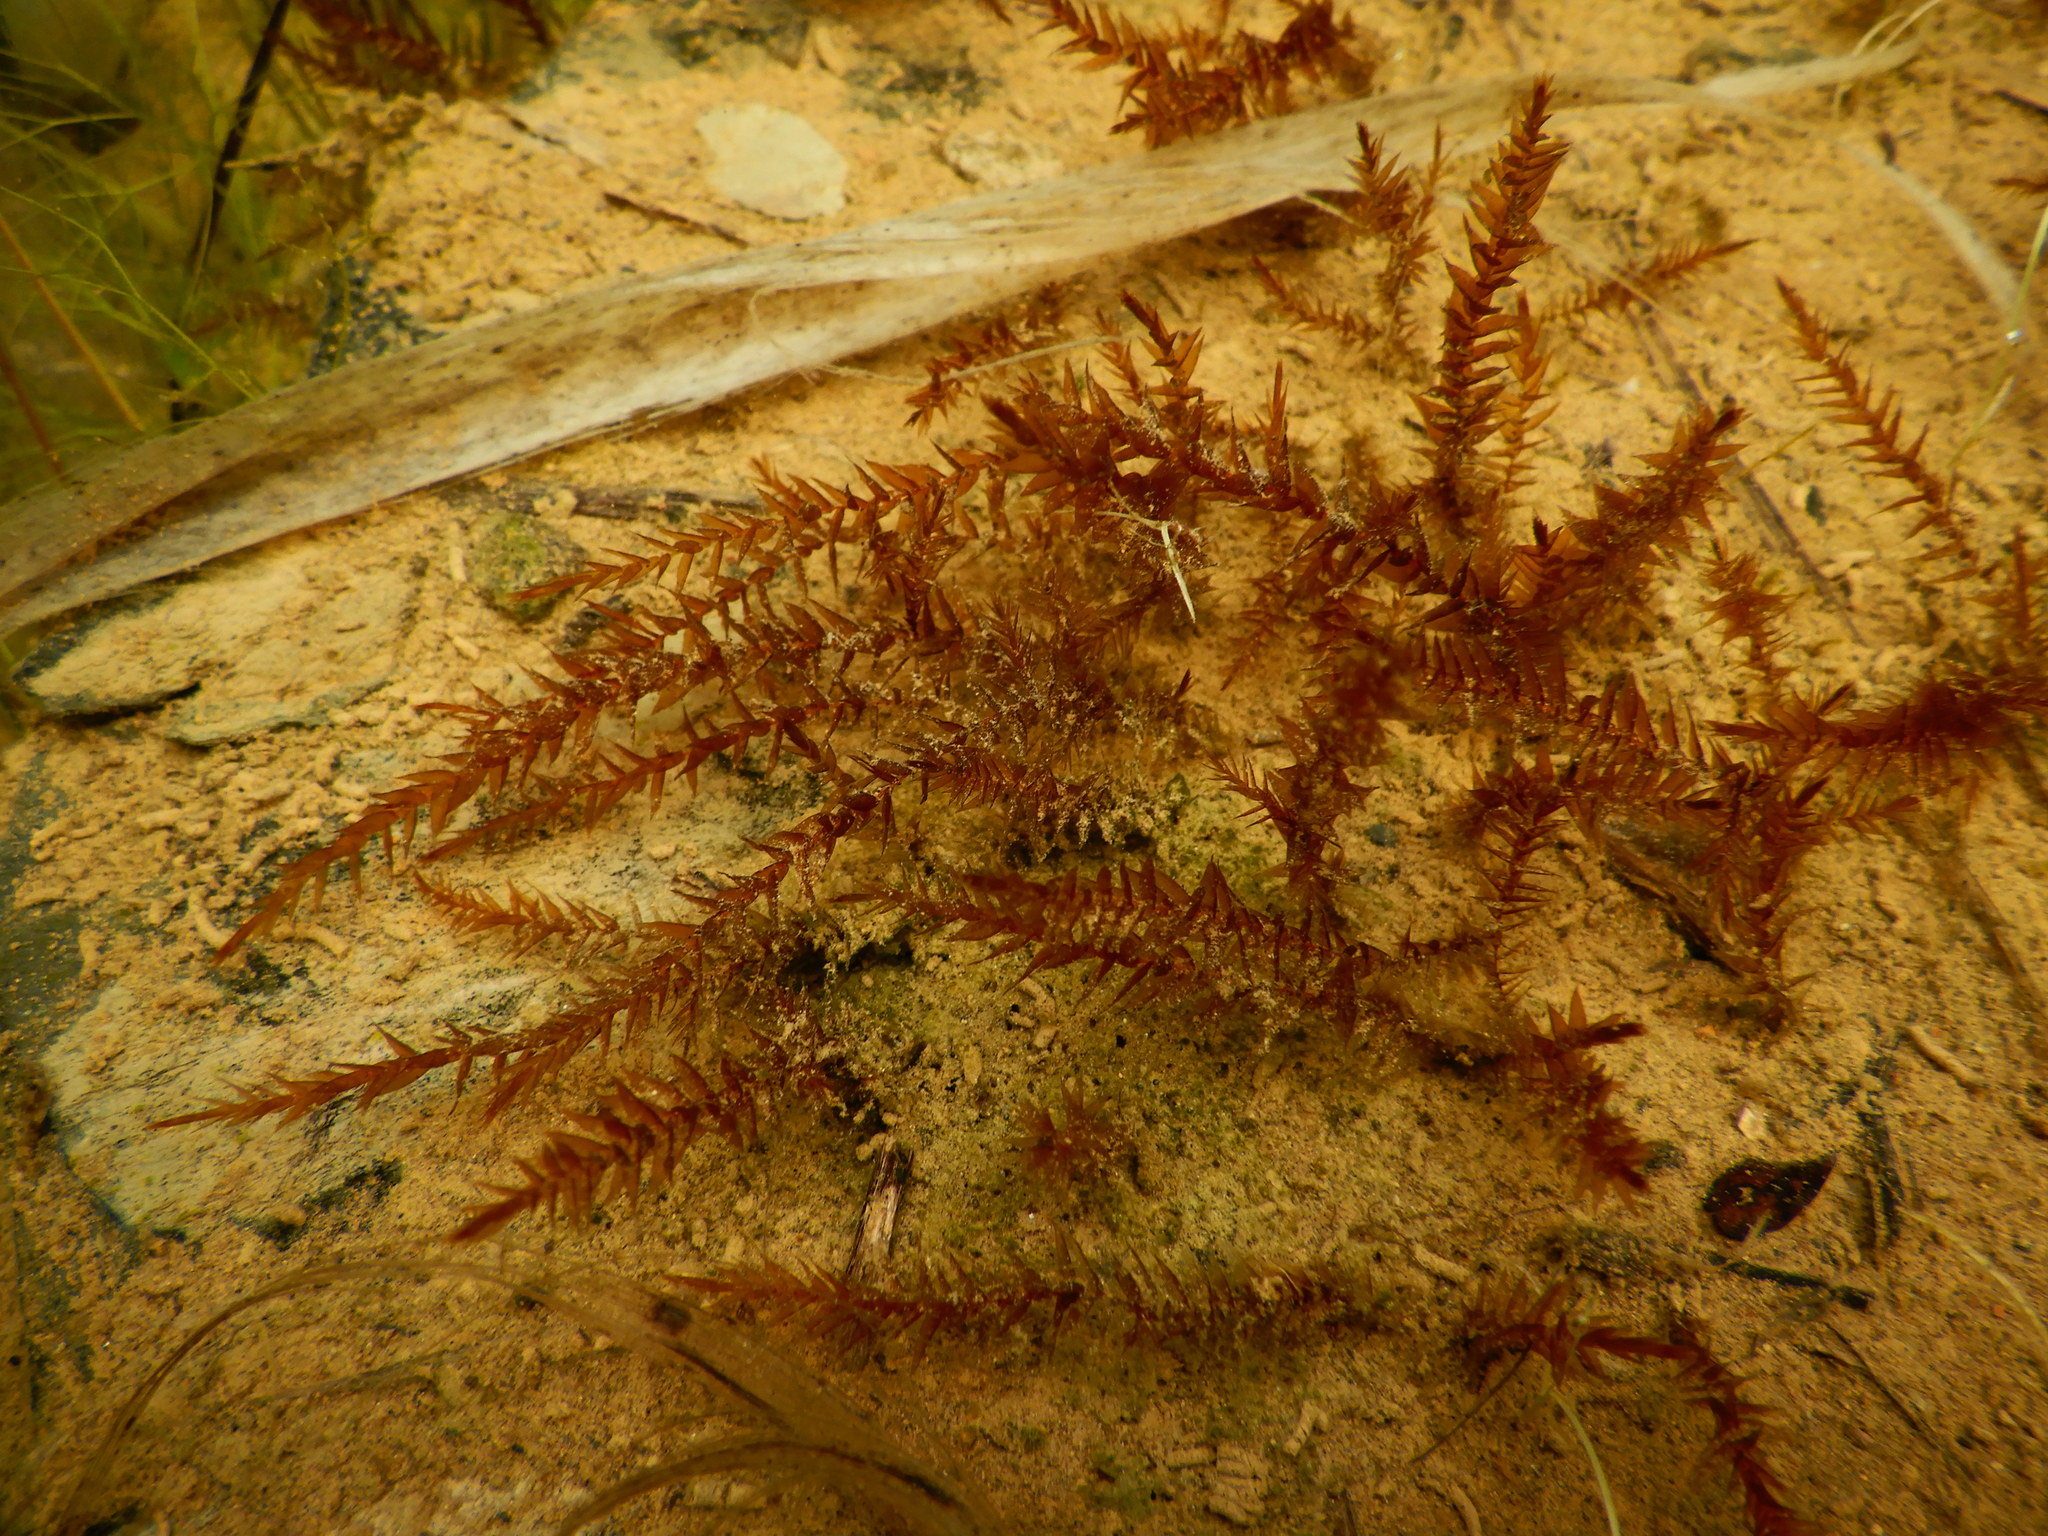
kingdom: Plantae
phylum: Bryophyta
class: Bryopsida
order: Hypnales
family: Fontinalaceae
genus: Fontinalis
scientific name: Fontinalis
